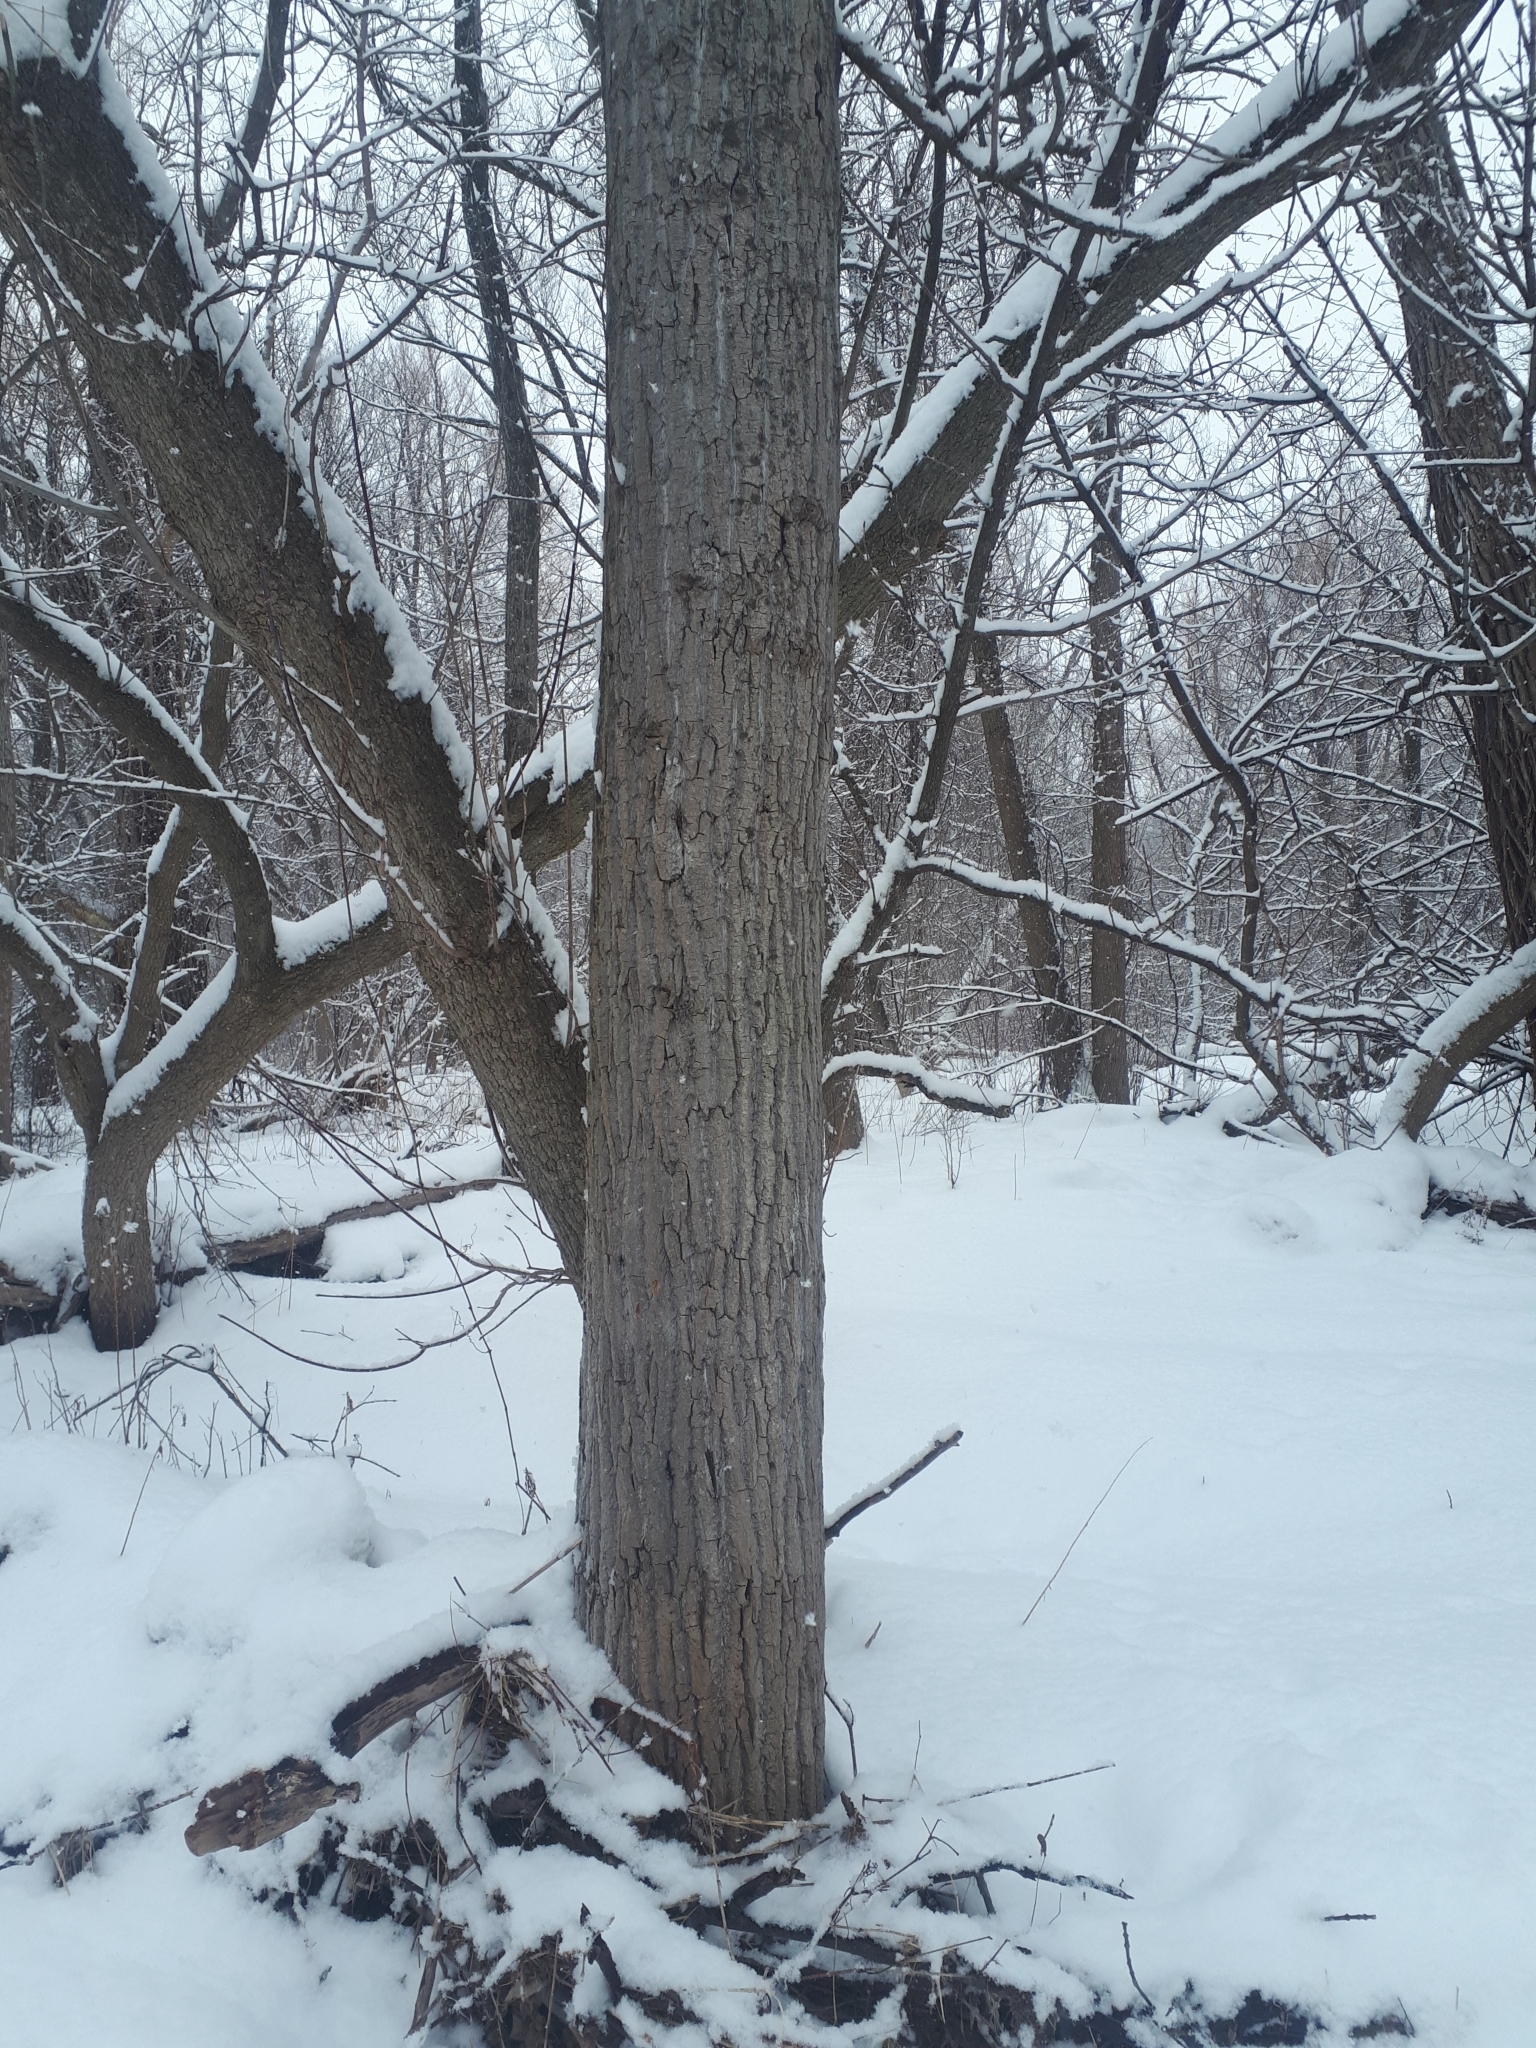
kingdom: Plantae
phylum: Tracheophyta
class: Magnoliopsida
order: Malpighiales
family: Salicaceae
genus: Populus
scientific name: Populus deltoides
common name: Eastern cottonwood
